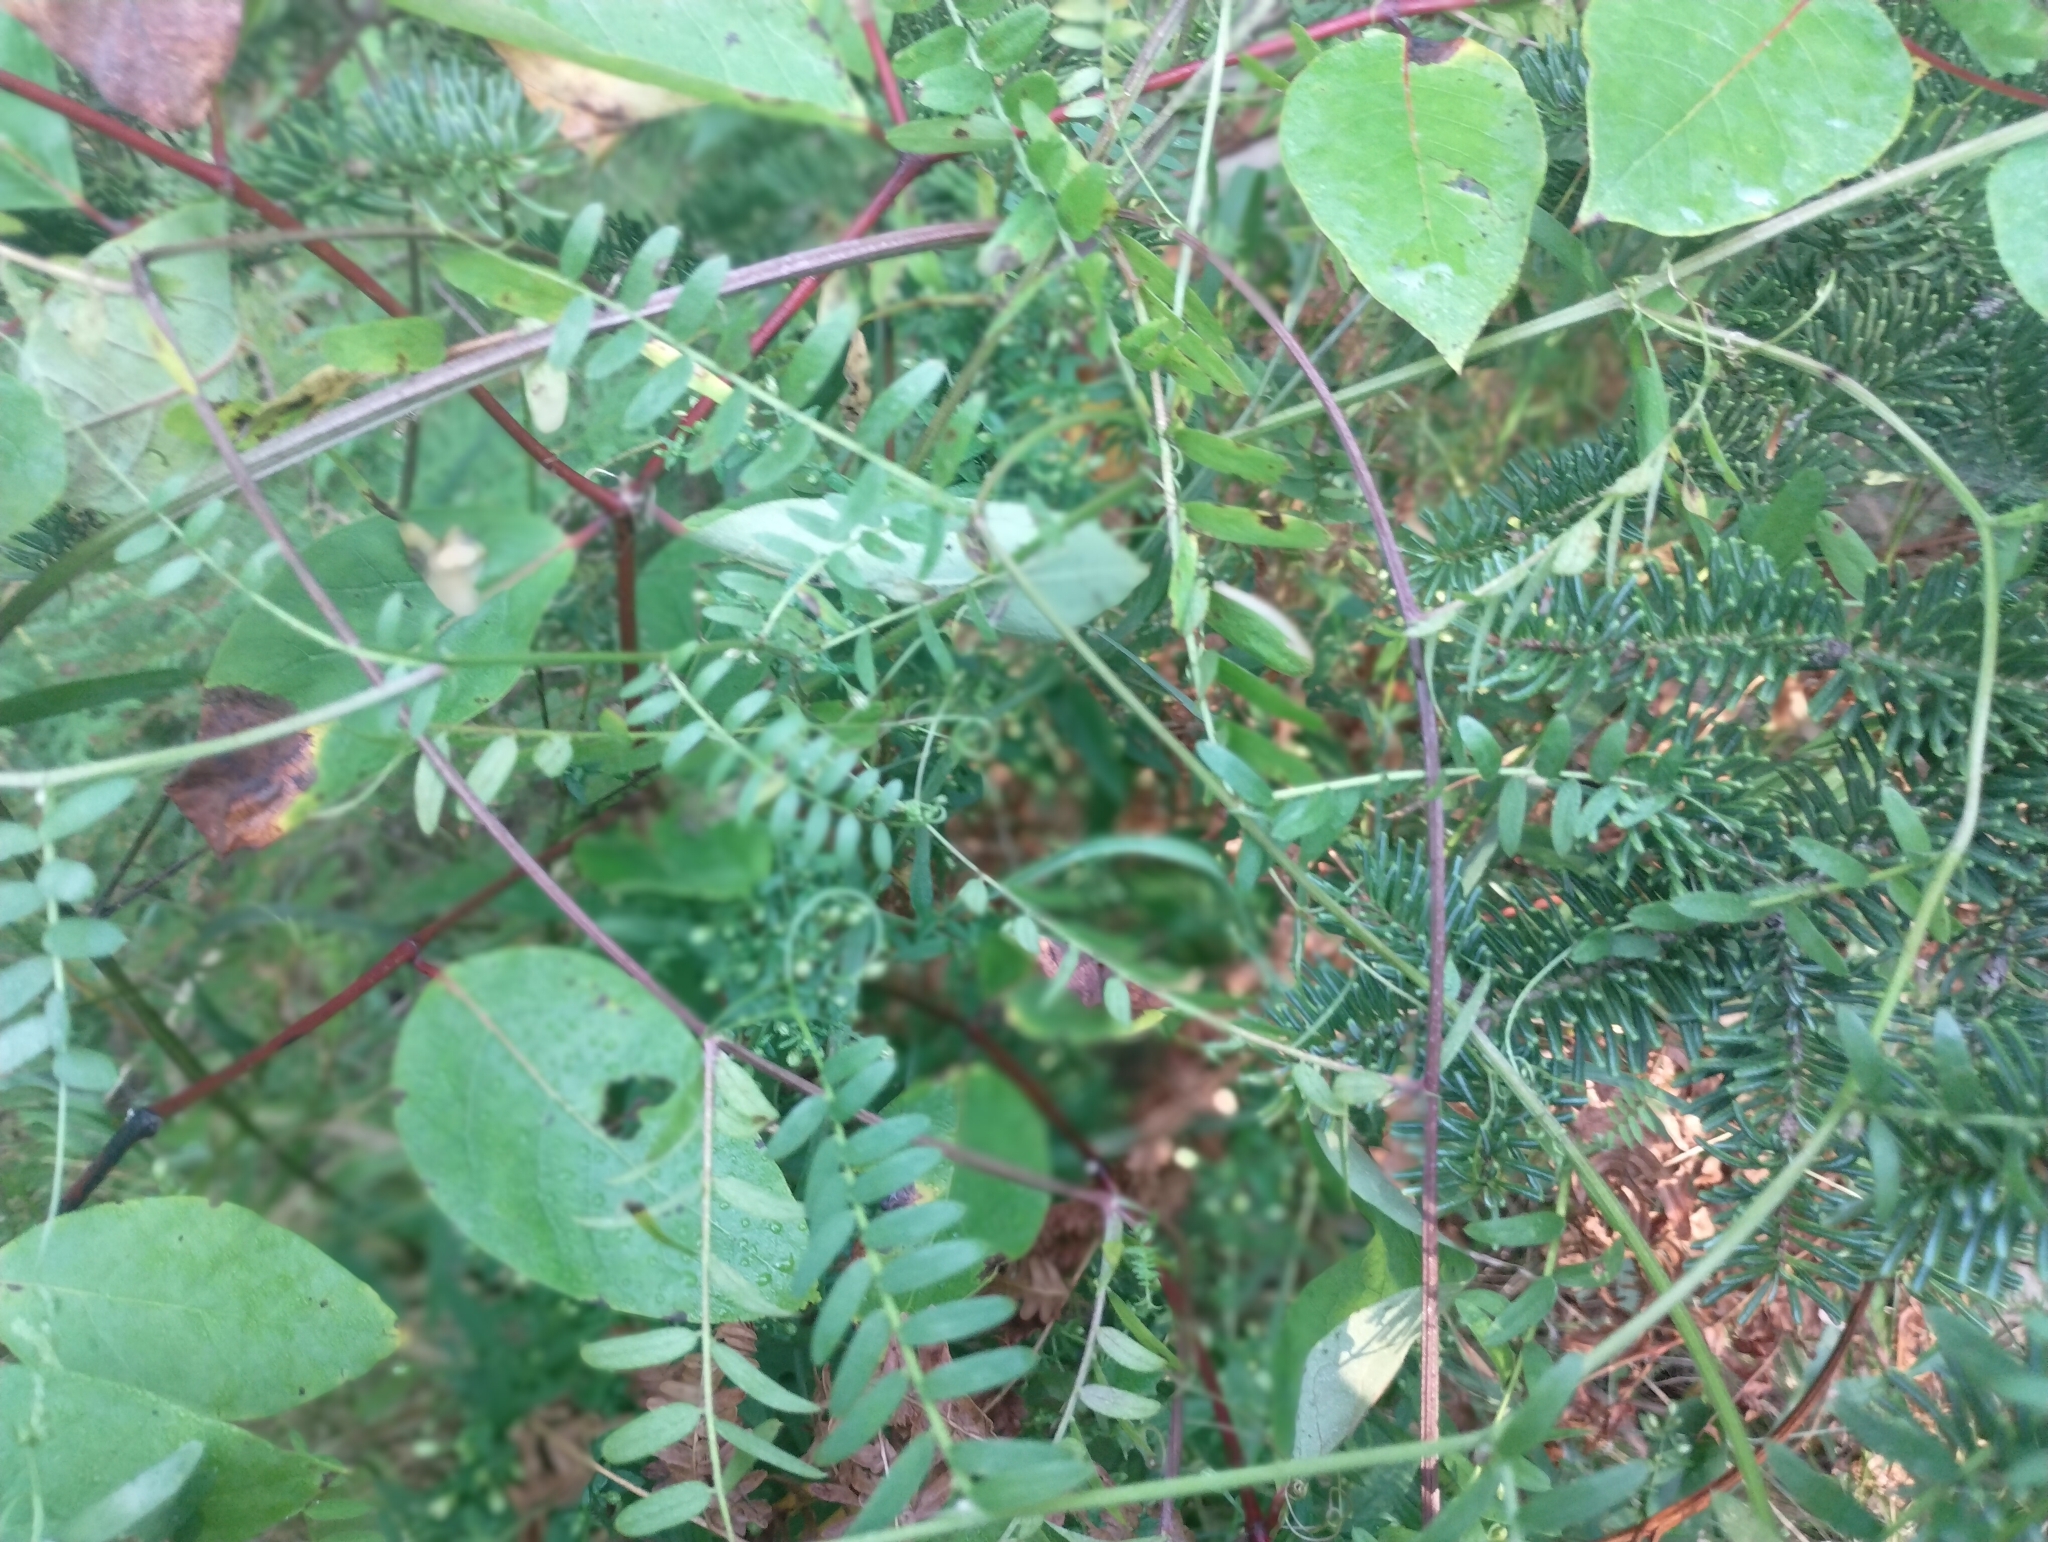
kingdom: Plantae
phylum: Tracheophyta
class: Magnoliopsida
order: Fabales
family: Fabaceae
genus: Vicia
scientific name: Vicia cracca
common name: Bird vetch
